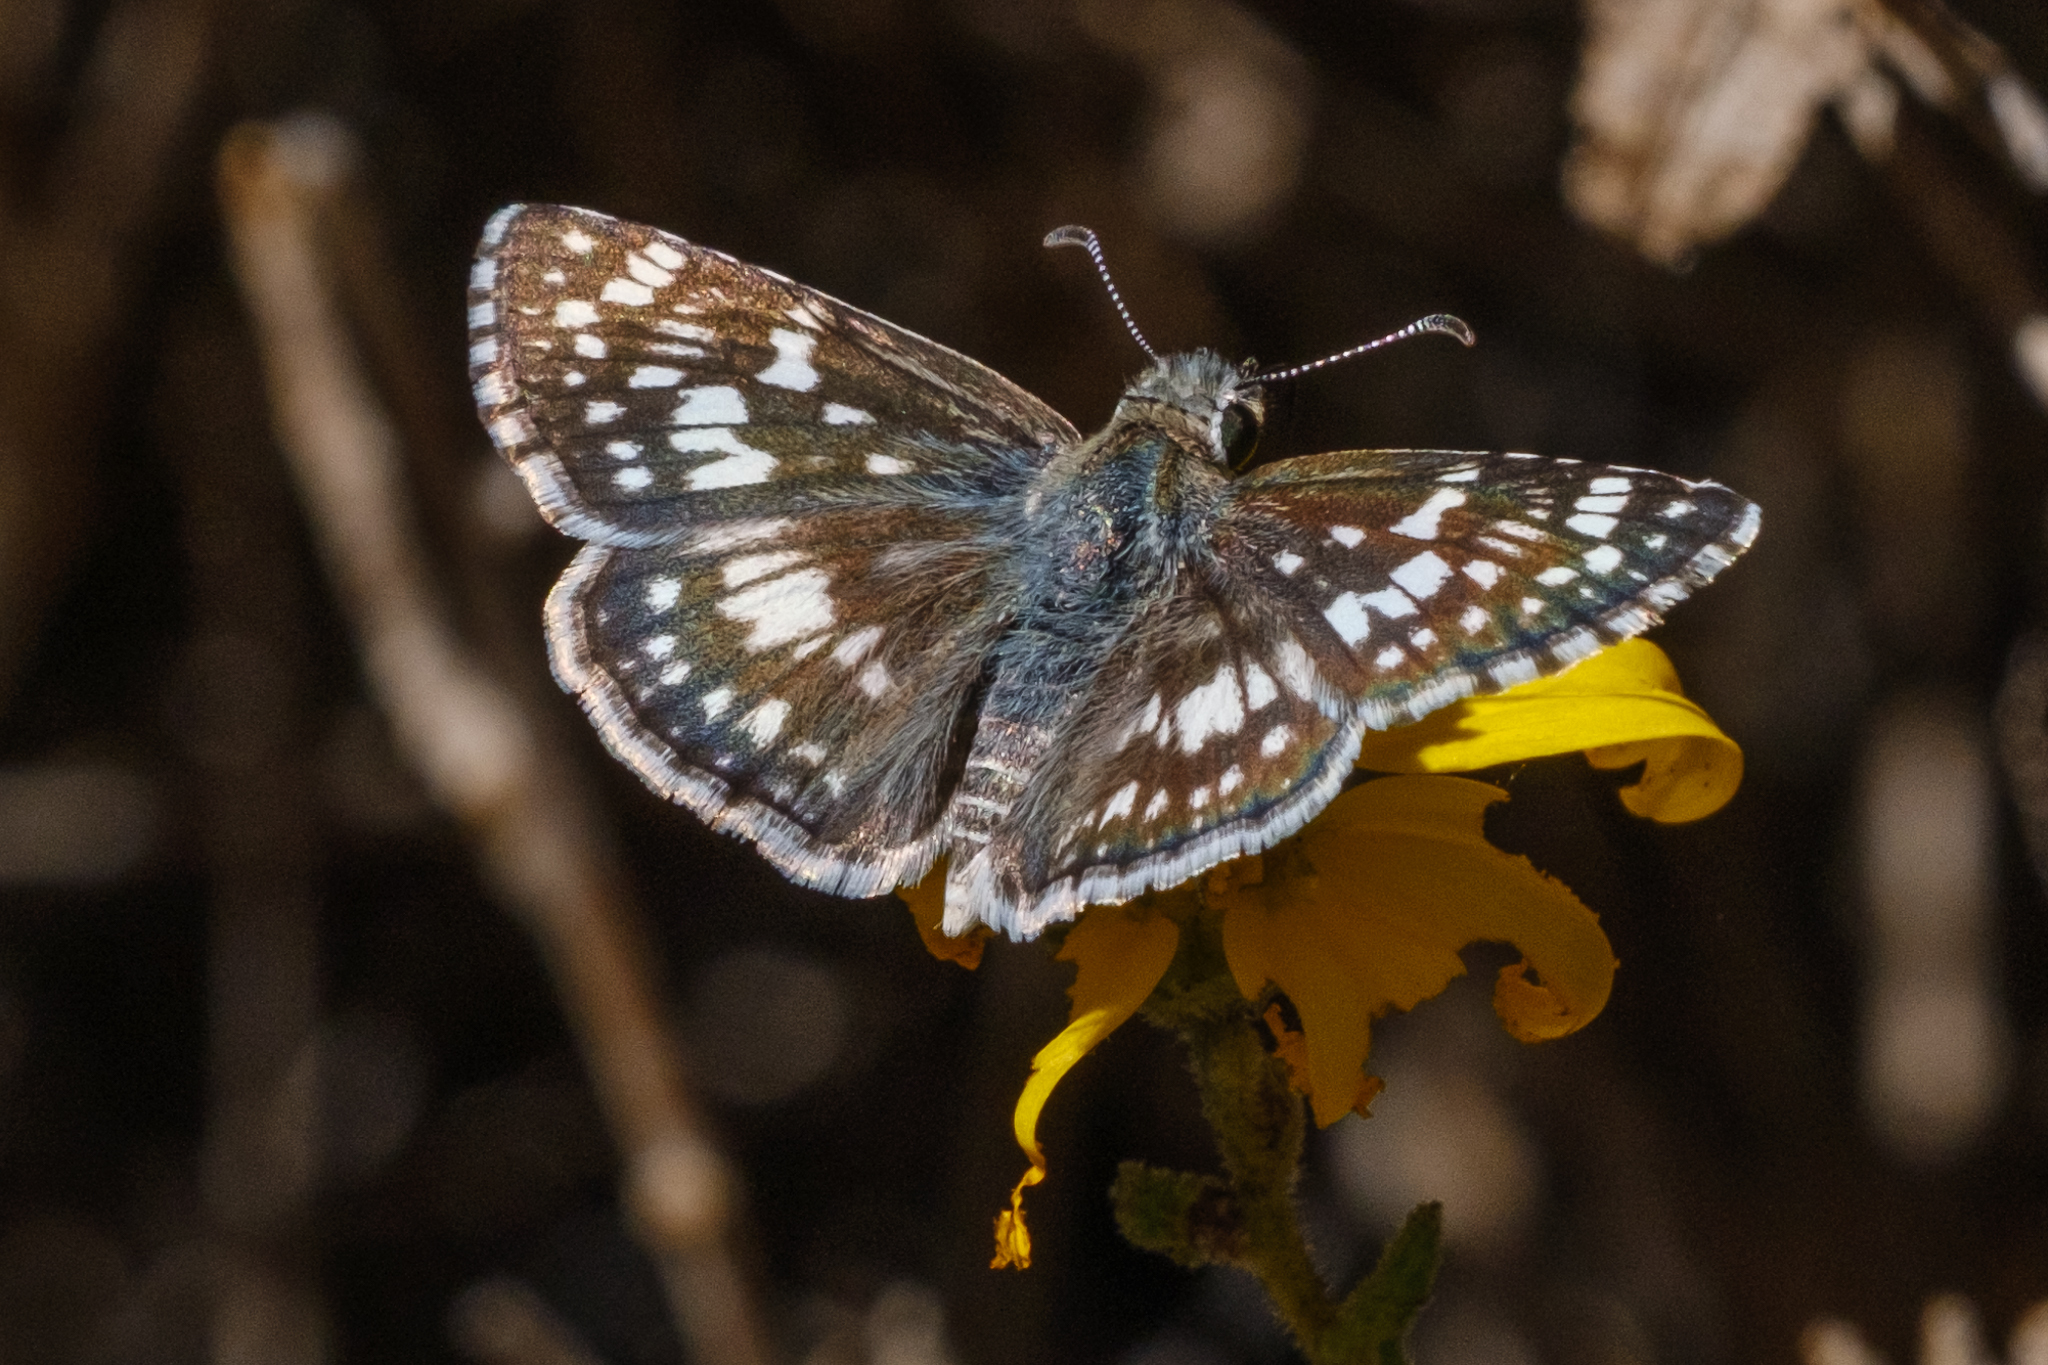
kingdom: Animalia
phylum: Arthropoda
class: Insecta
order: Lepidoptera
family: Hesperiidae
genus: Burnsius
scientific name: Burnsius albezens
